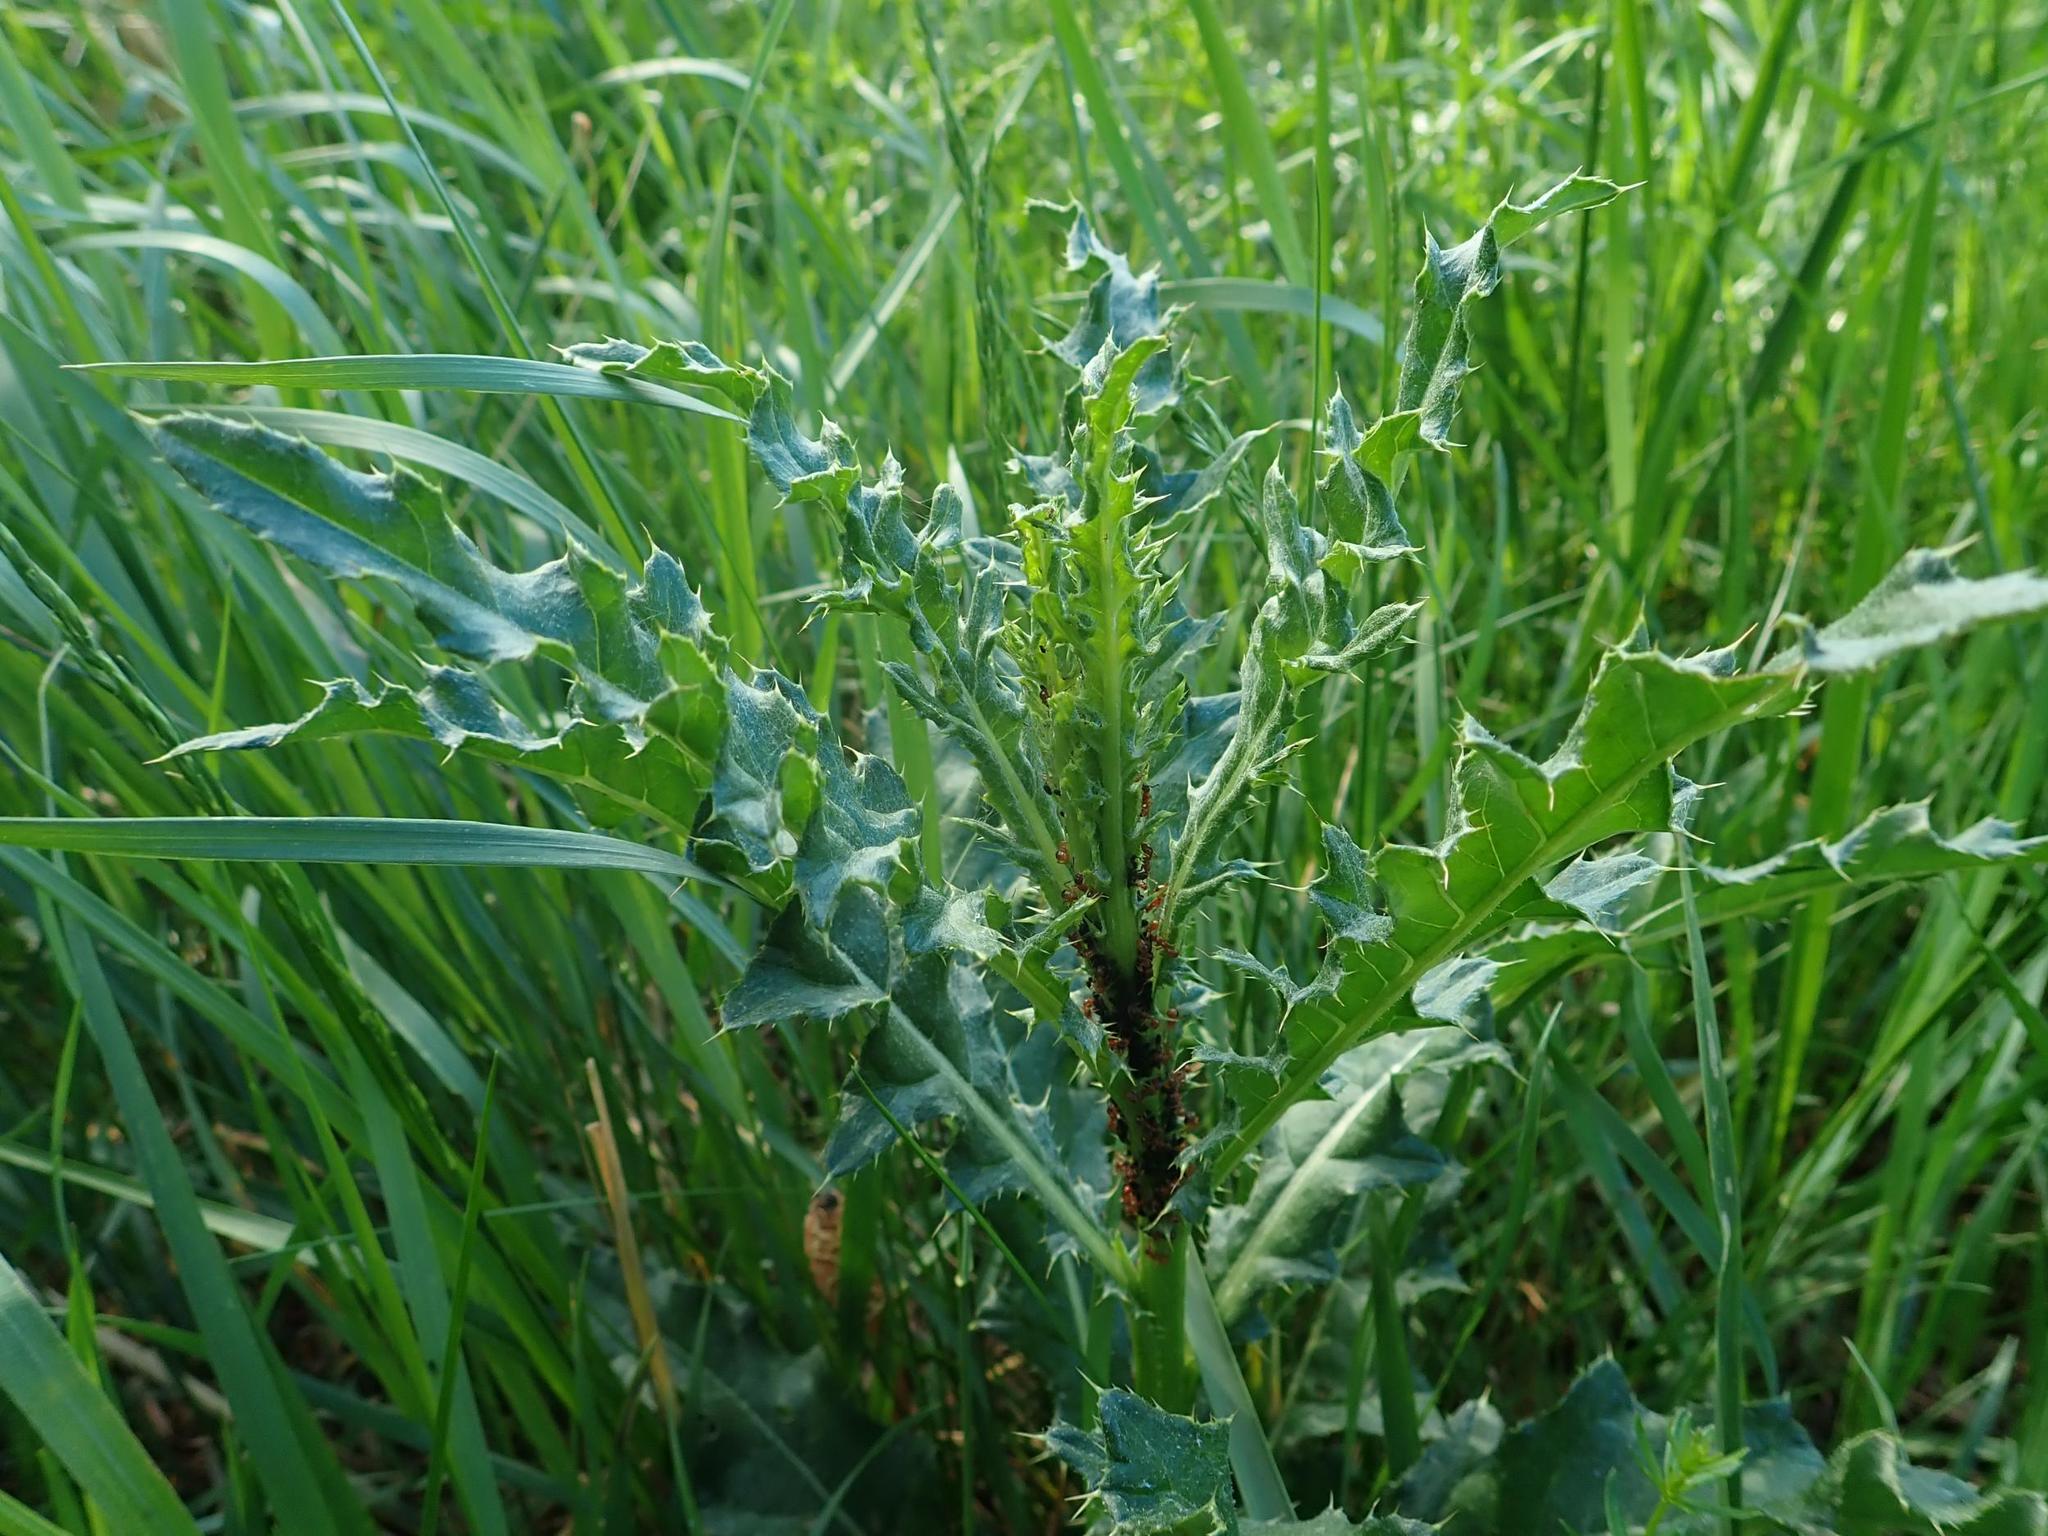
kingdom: Plantae
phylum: Tracheophyta
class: Magnoliopsida
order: Asterales
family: Asteraceae
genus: Cirsium
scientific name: Cirsium arvense
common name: Creeping thistle
